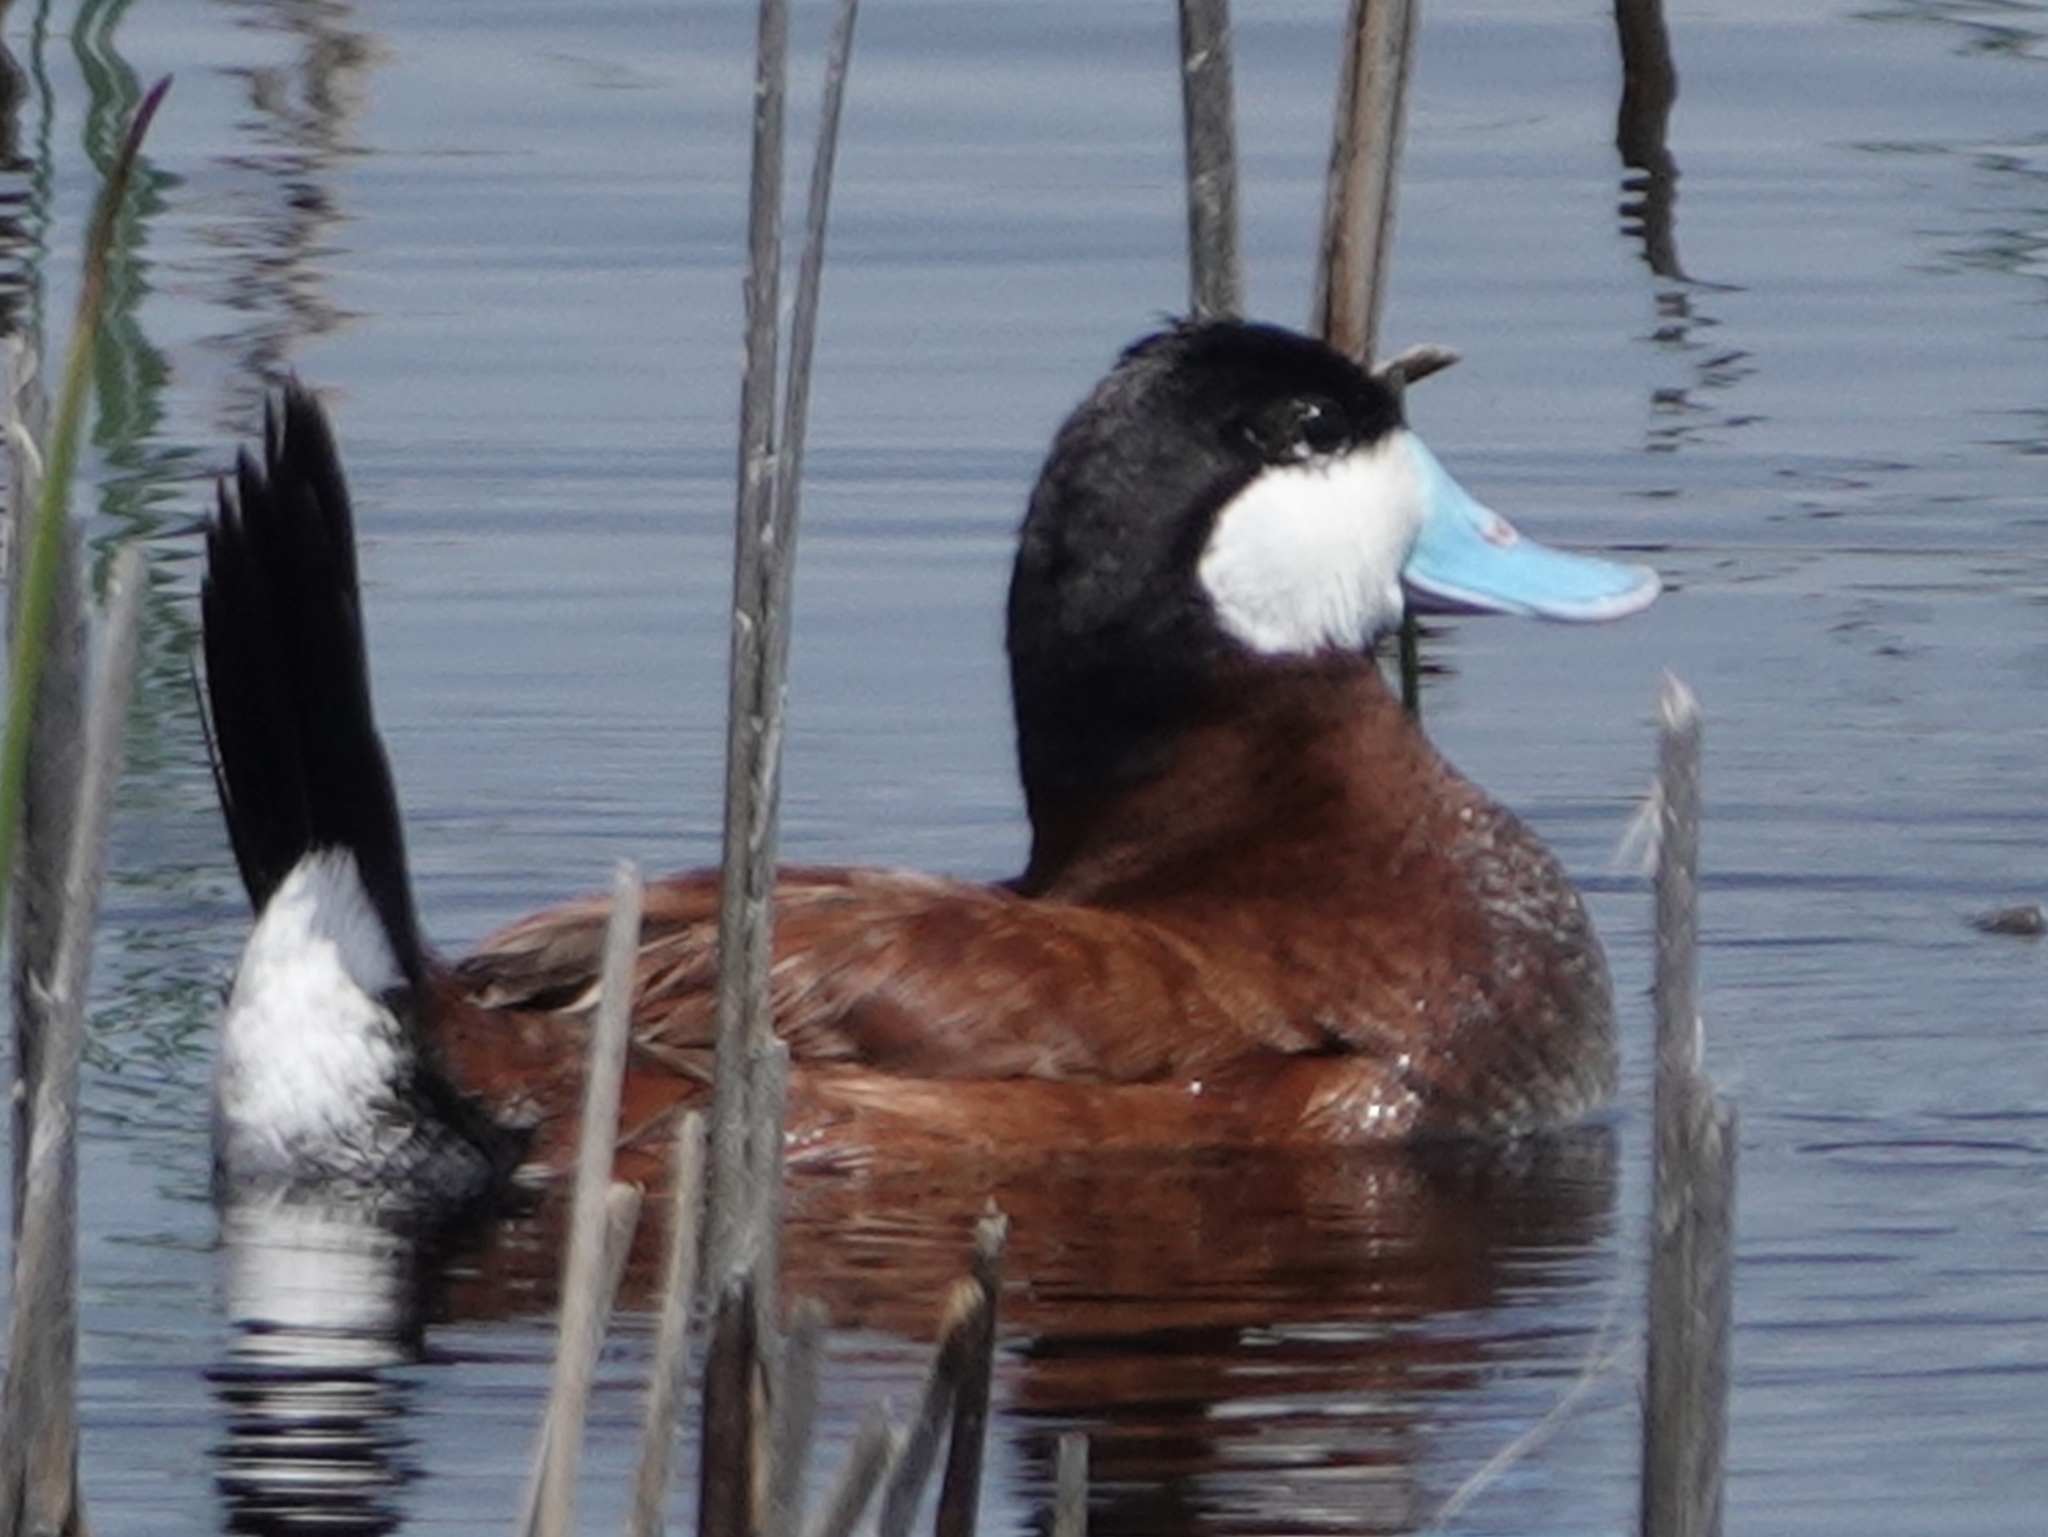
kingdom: Animalia
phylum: Chordata
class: Aves
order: Anseriformes
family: Anatidae
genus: Oxyura
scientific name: Oxyura jamaicensis
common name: Ruddy duck
